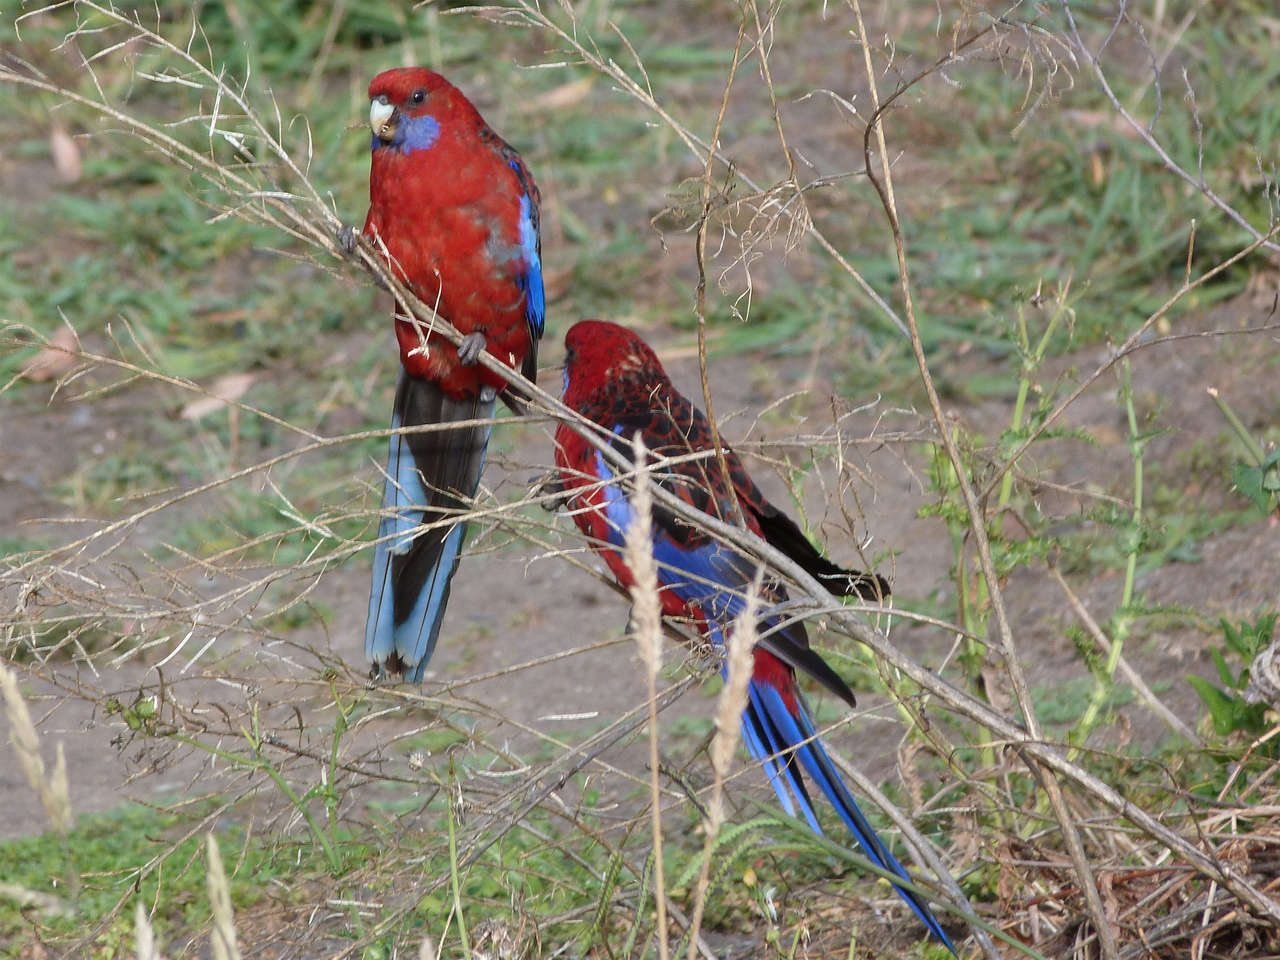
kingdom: Animalia
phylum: Chordata
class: Aves
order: Psittaciformes
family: Psittacidae
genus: Platycercus
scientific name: Platycercus elegans
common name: Crimson rosella
